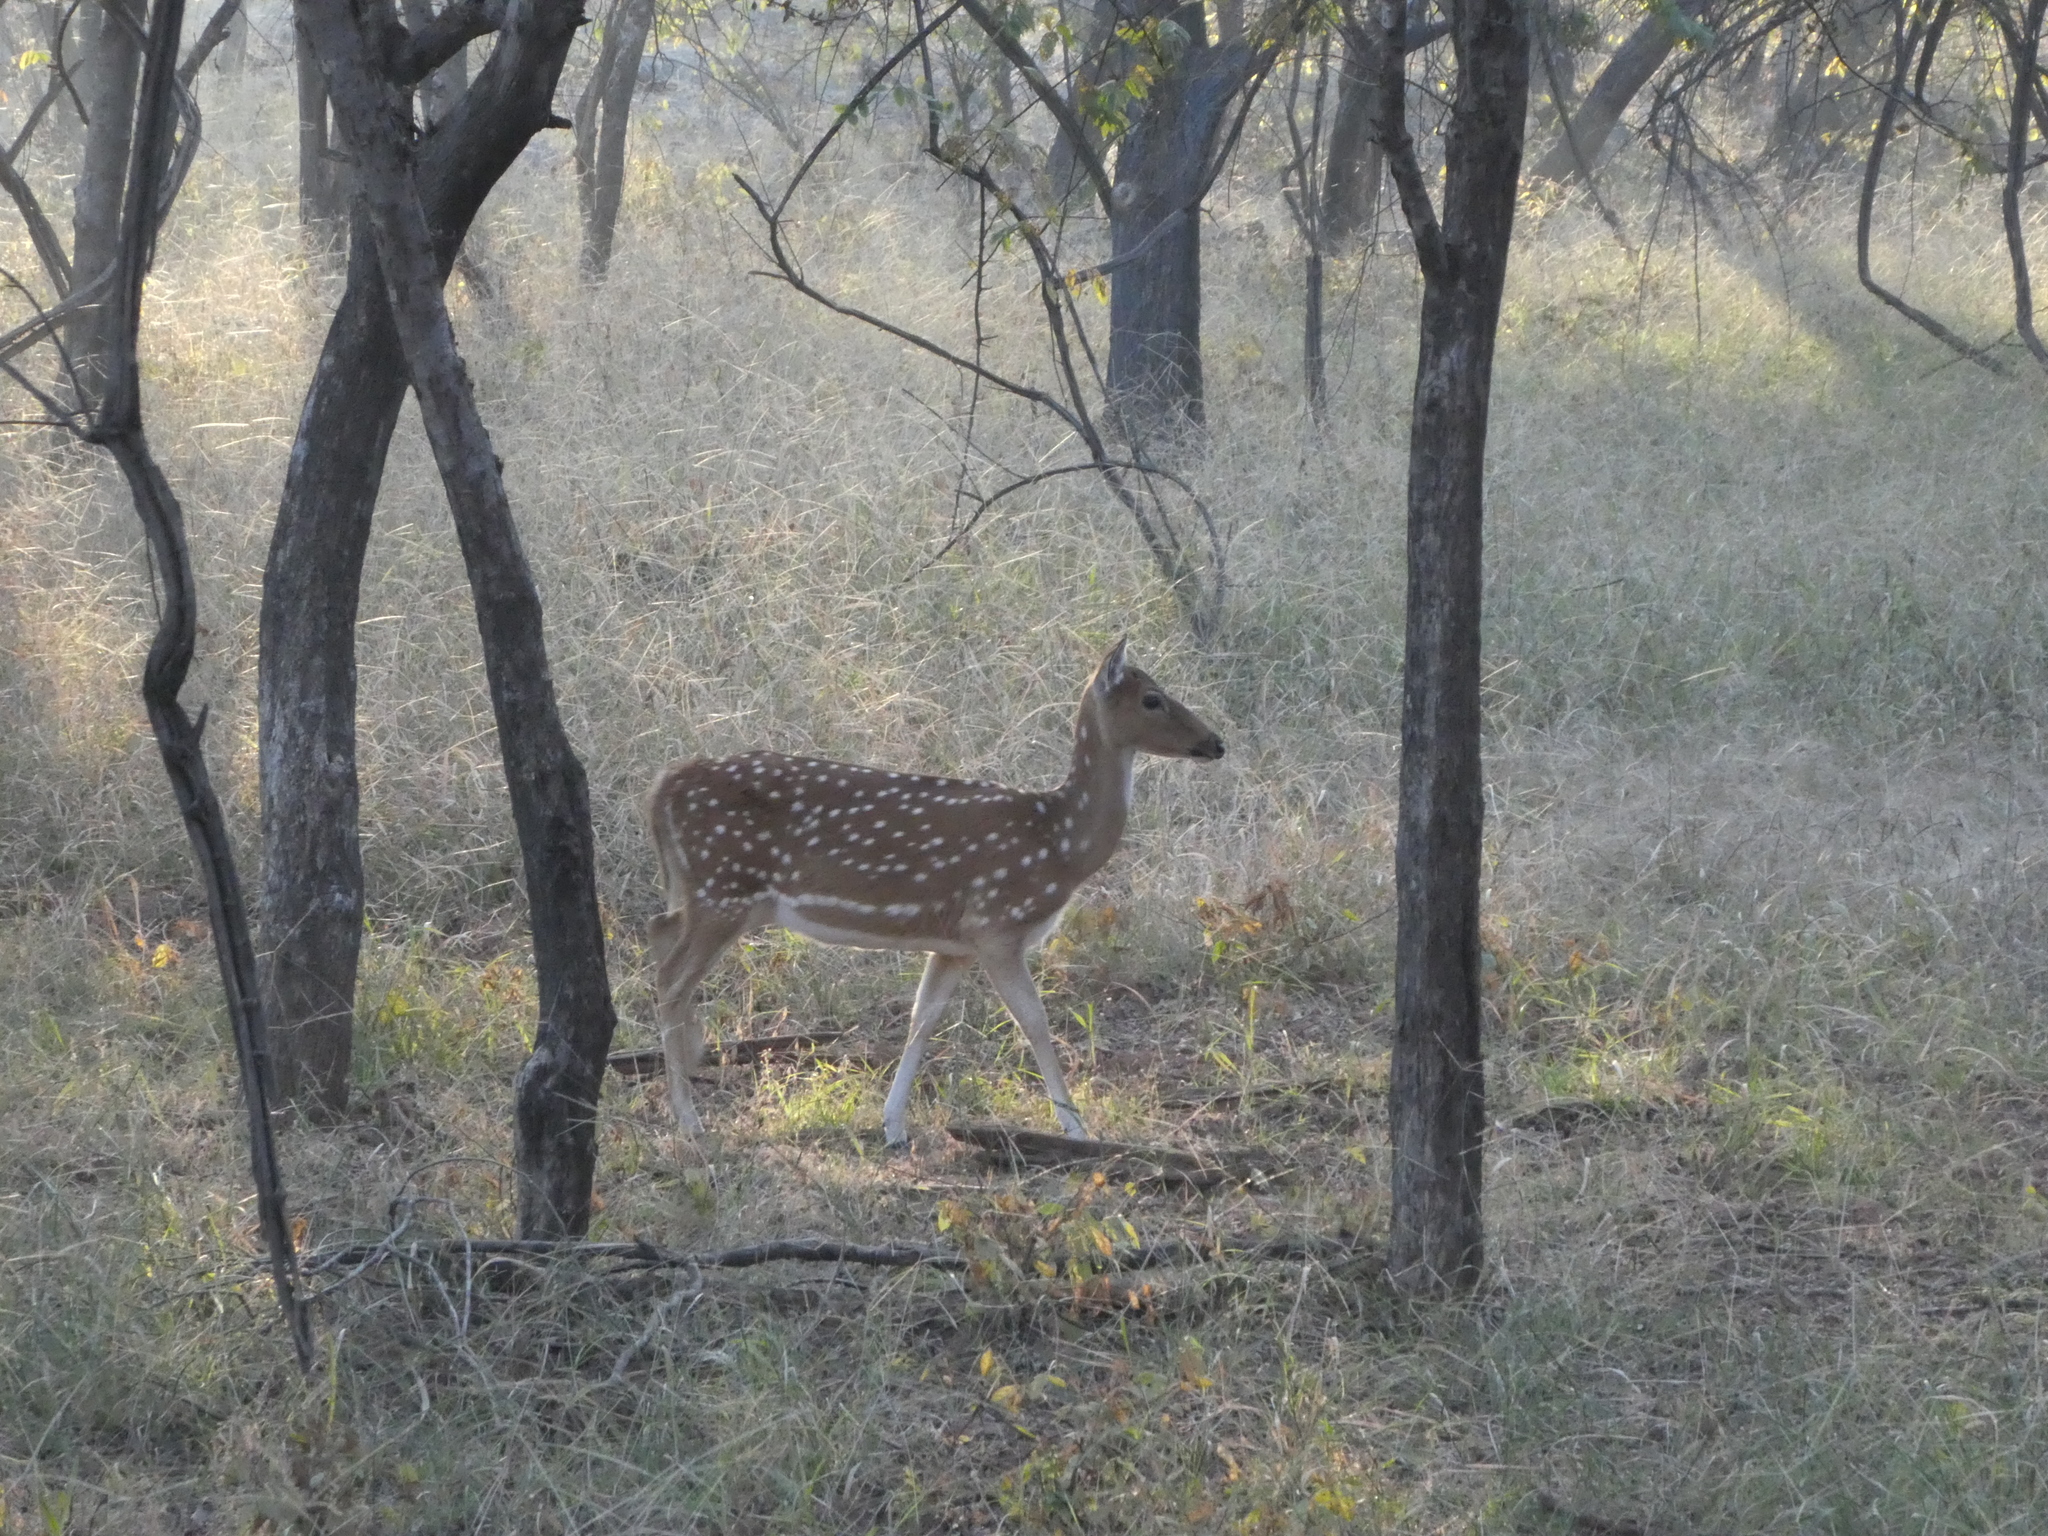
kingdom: Animalia
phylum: Chordata
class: Mammalia
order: Artiodactyla
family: Cervidae
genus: Axis
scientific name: Axis axis
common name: Chital
